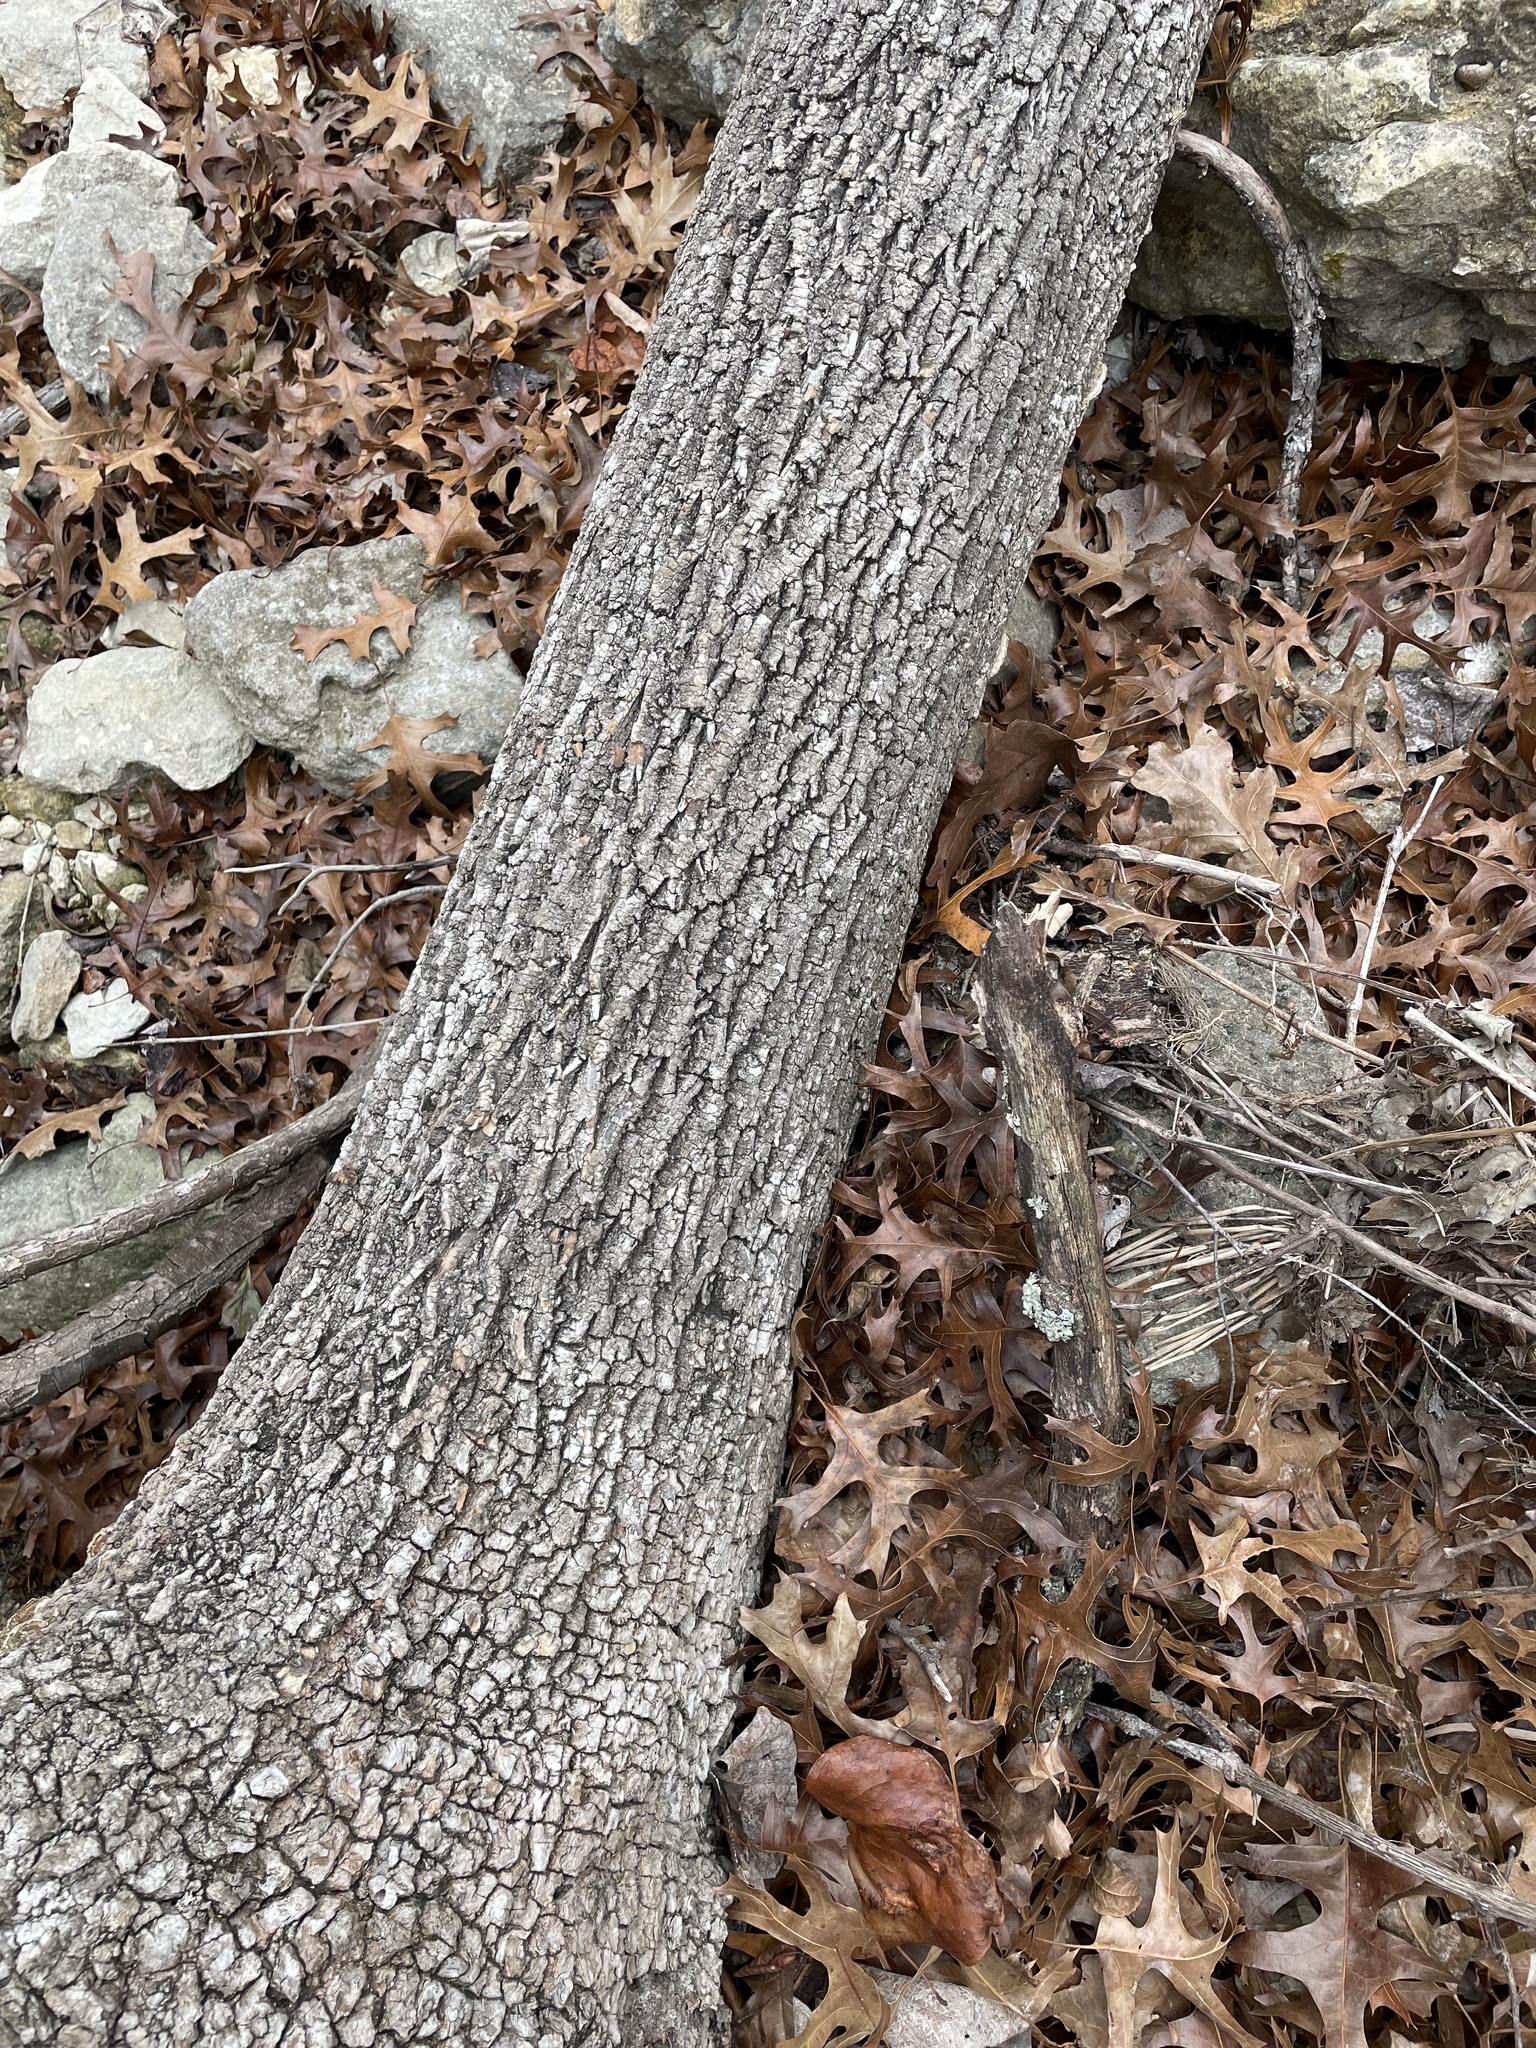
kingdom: Plantae
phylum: Tracheophyta
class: Magnoliopsida
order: Lamiales
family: Oleaceae
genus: Fraxinus
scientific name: Fraxinus albicans
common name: Texas ash
